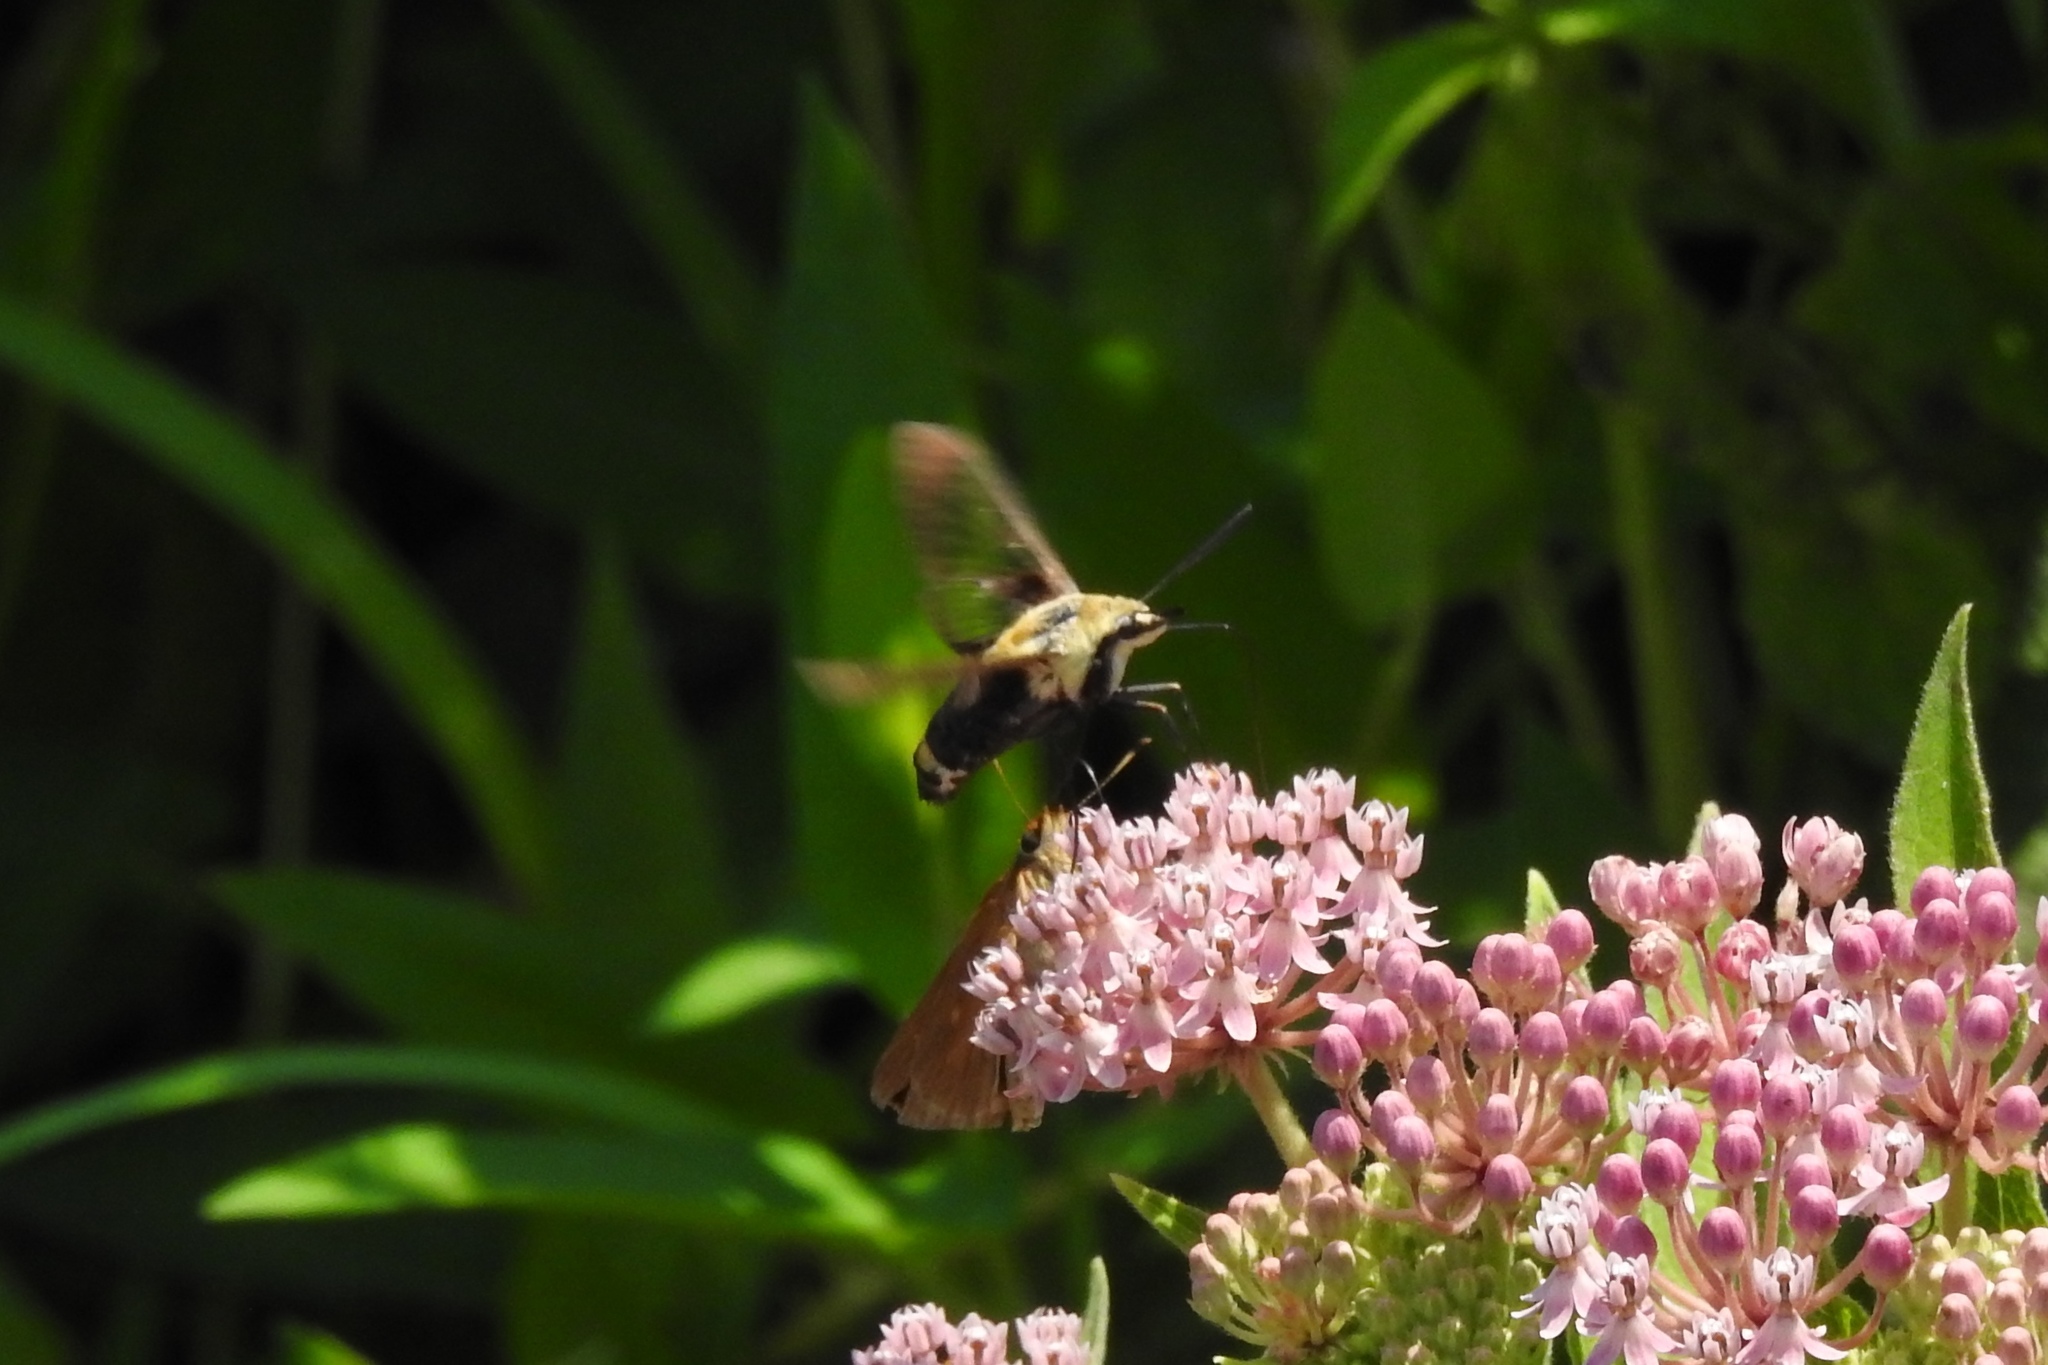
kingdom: Animalia
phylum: Arthropoda
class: Insecta
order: Lepidoptera
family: Sphingidae
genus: Hemaris
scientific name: Hemaris diffinis
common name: Bumblebee moth
